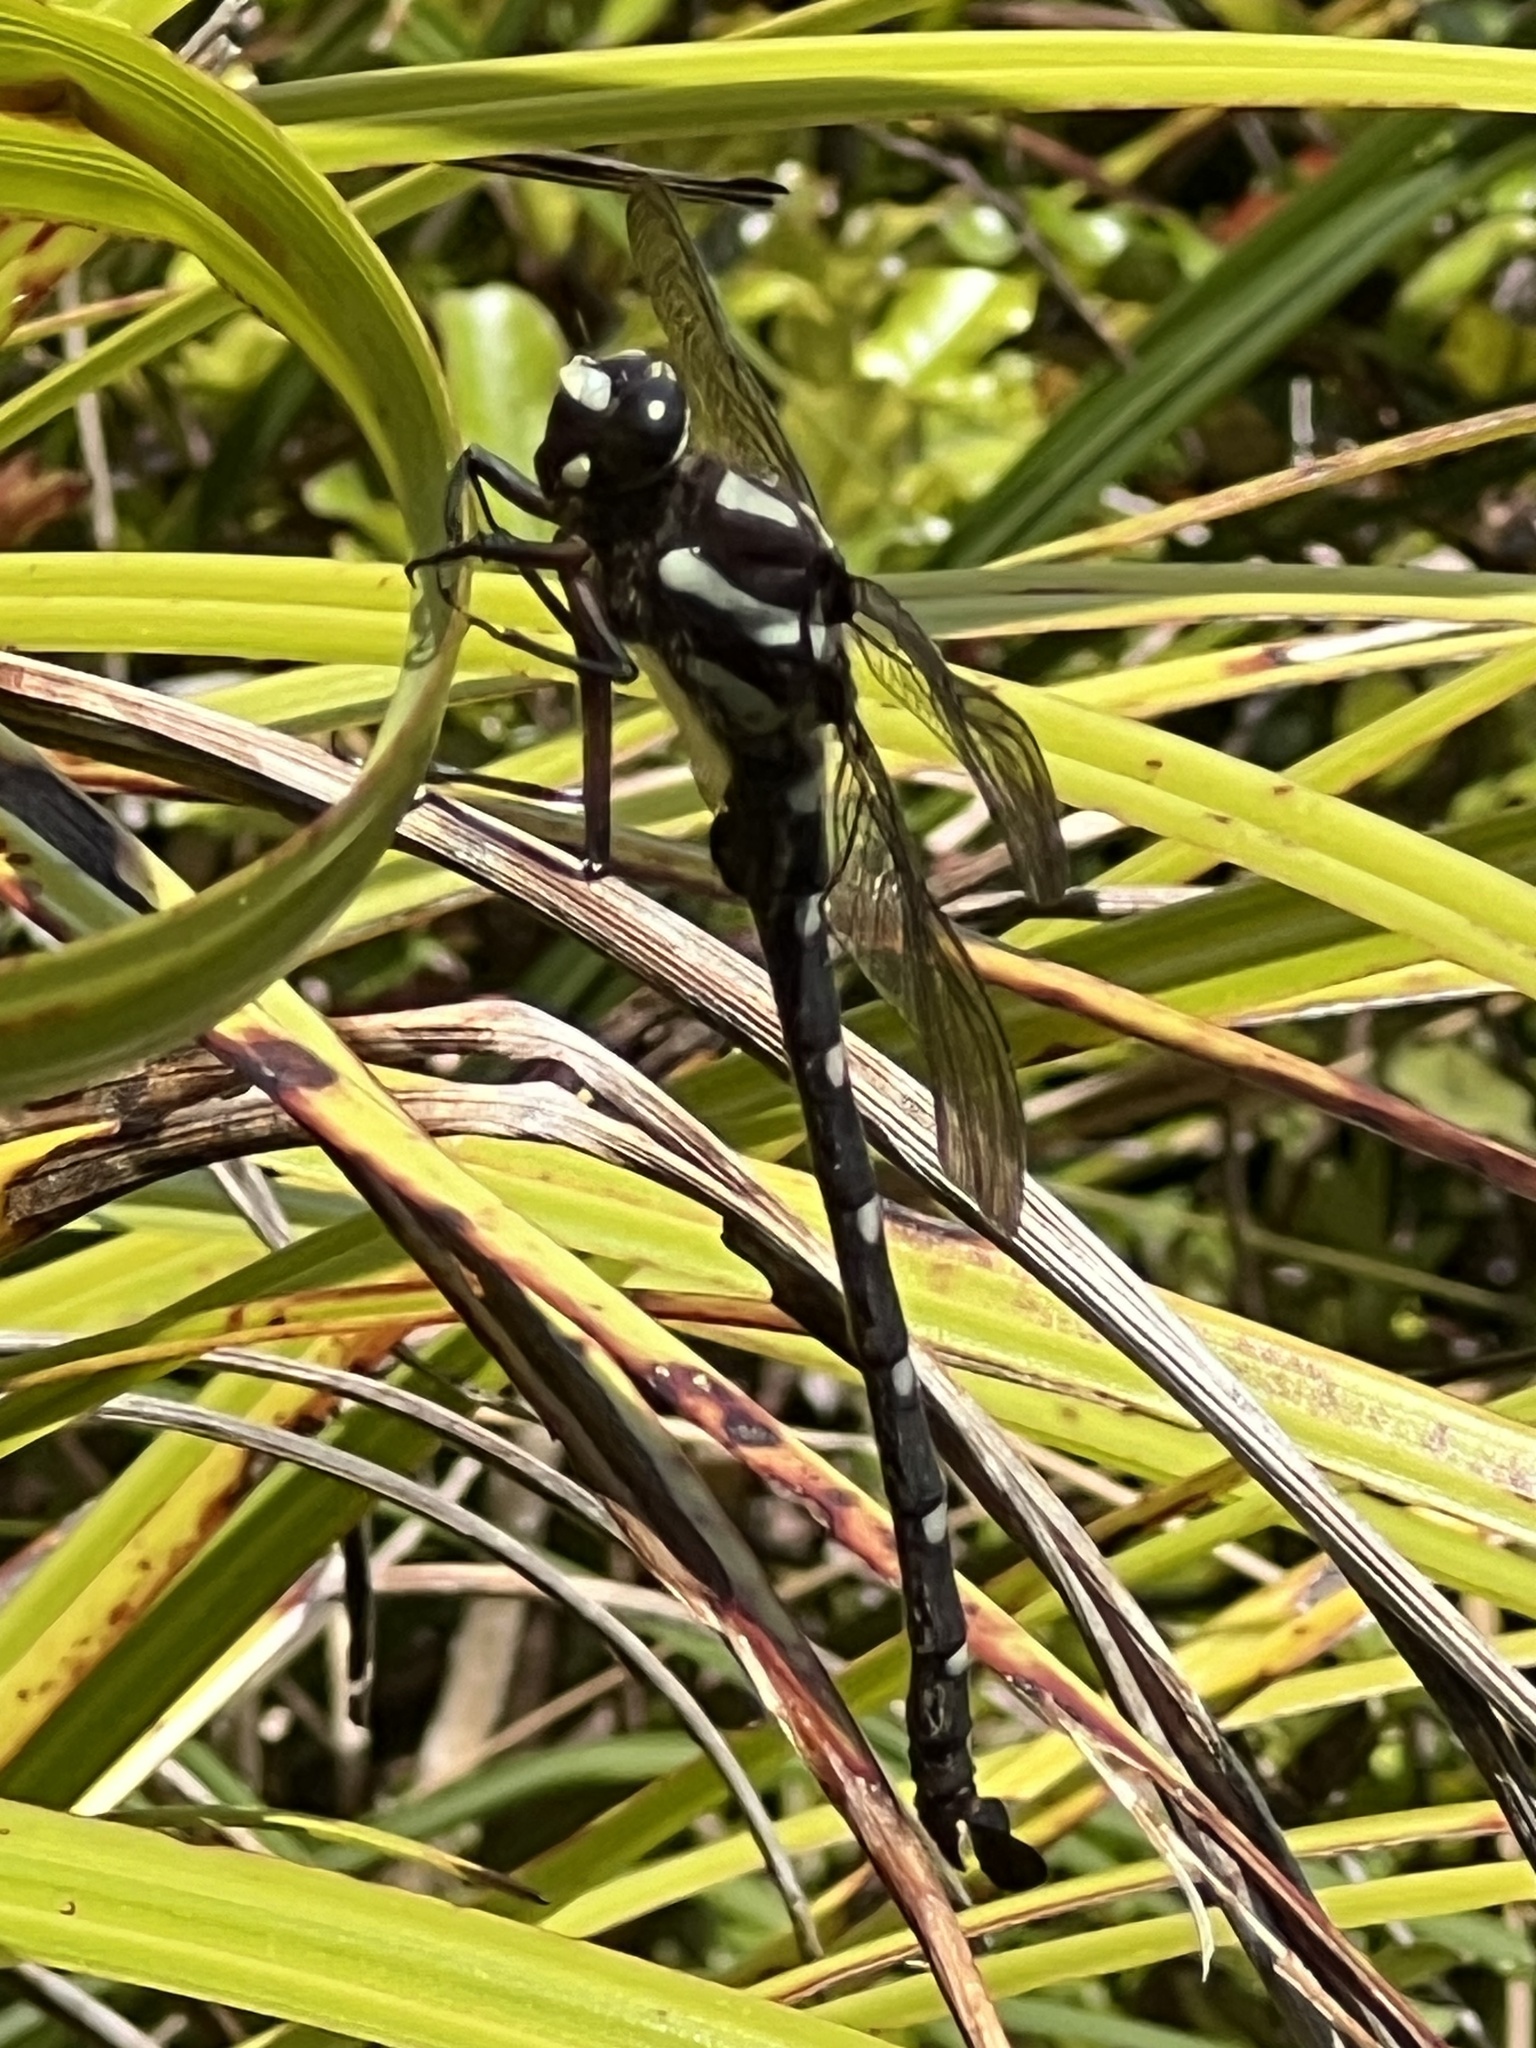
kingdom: Animalia
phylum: Arthropoda
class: Insecta
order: Odonata
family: Petaluridae
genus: Uropetala
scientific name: Uropetala carovei
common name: Bush giant dragonfly
